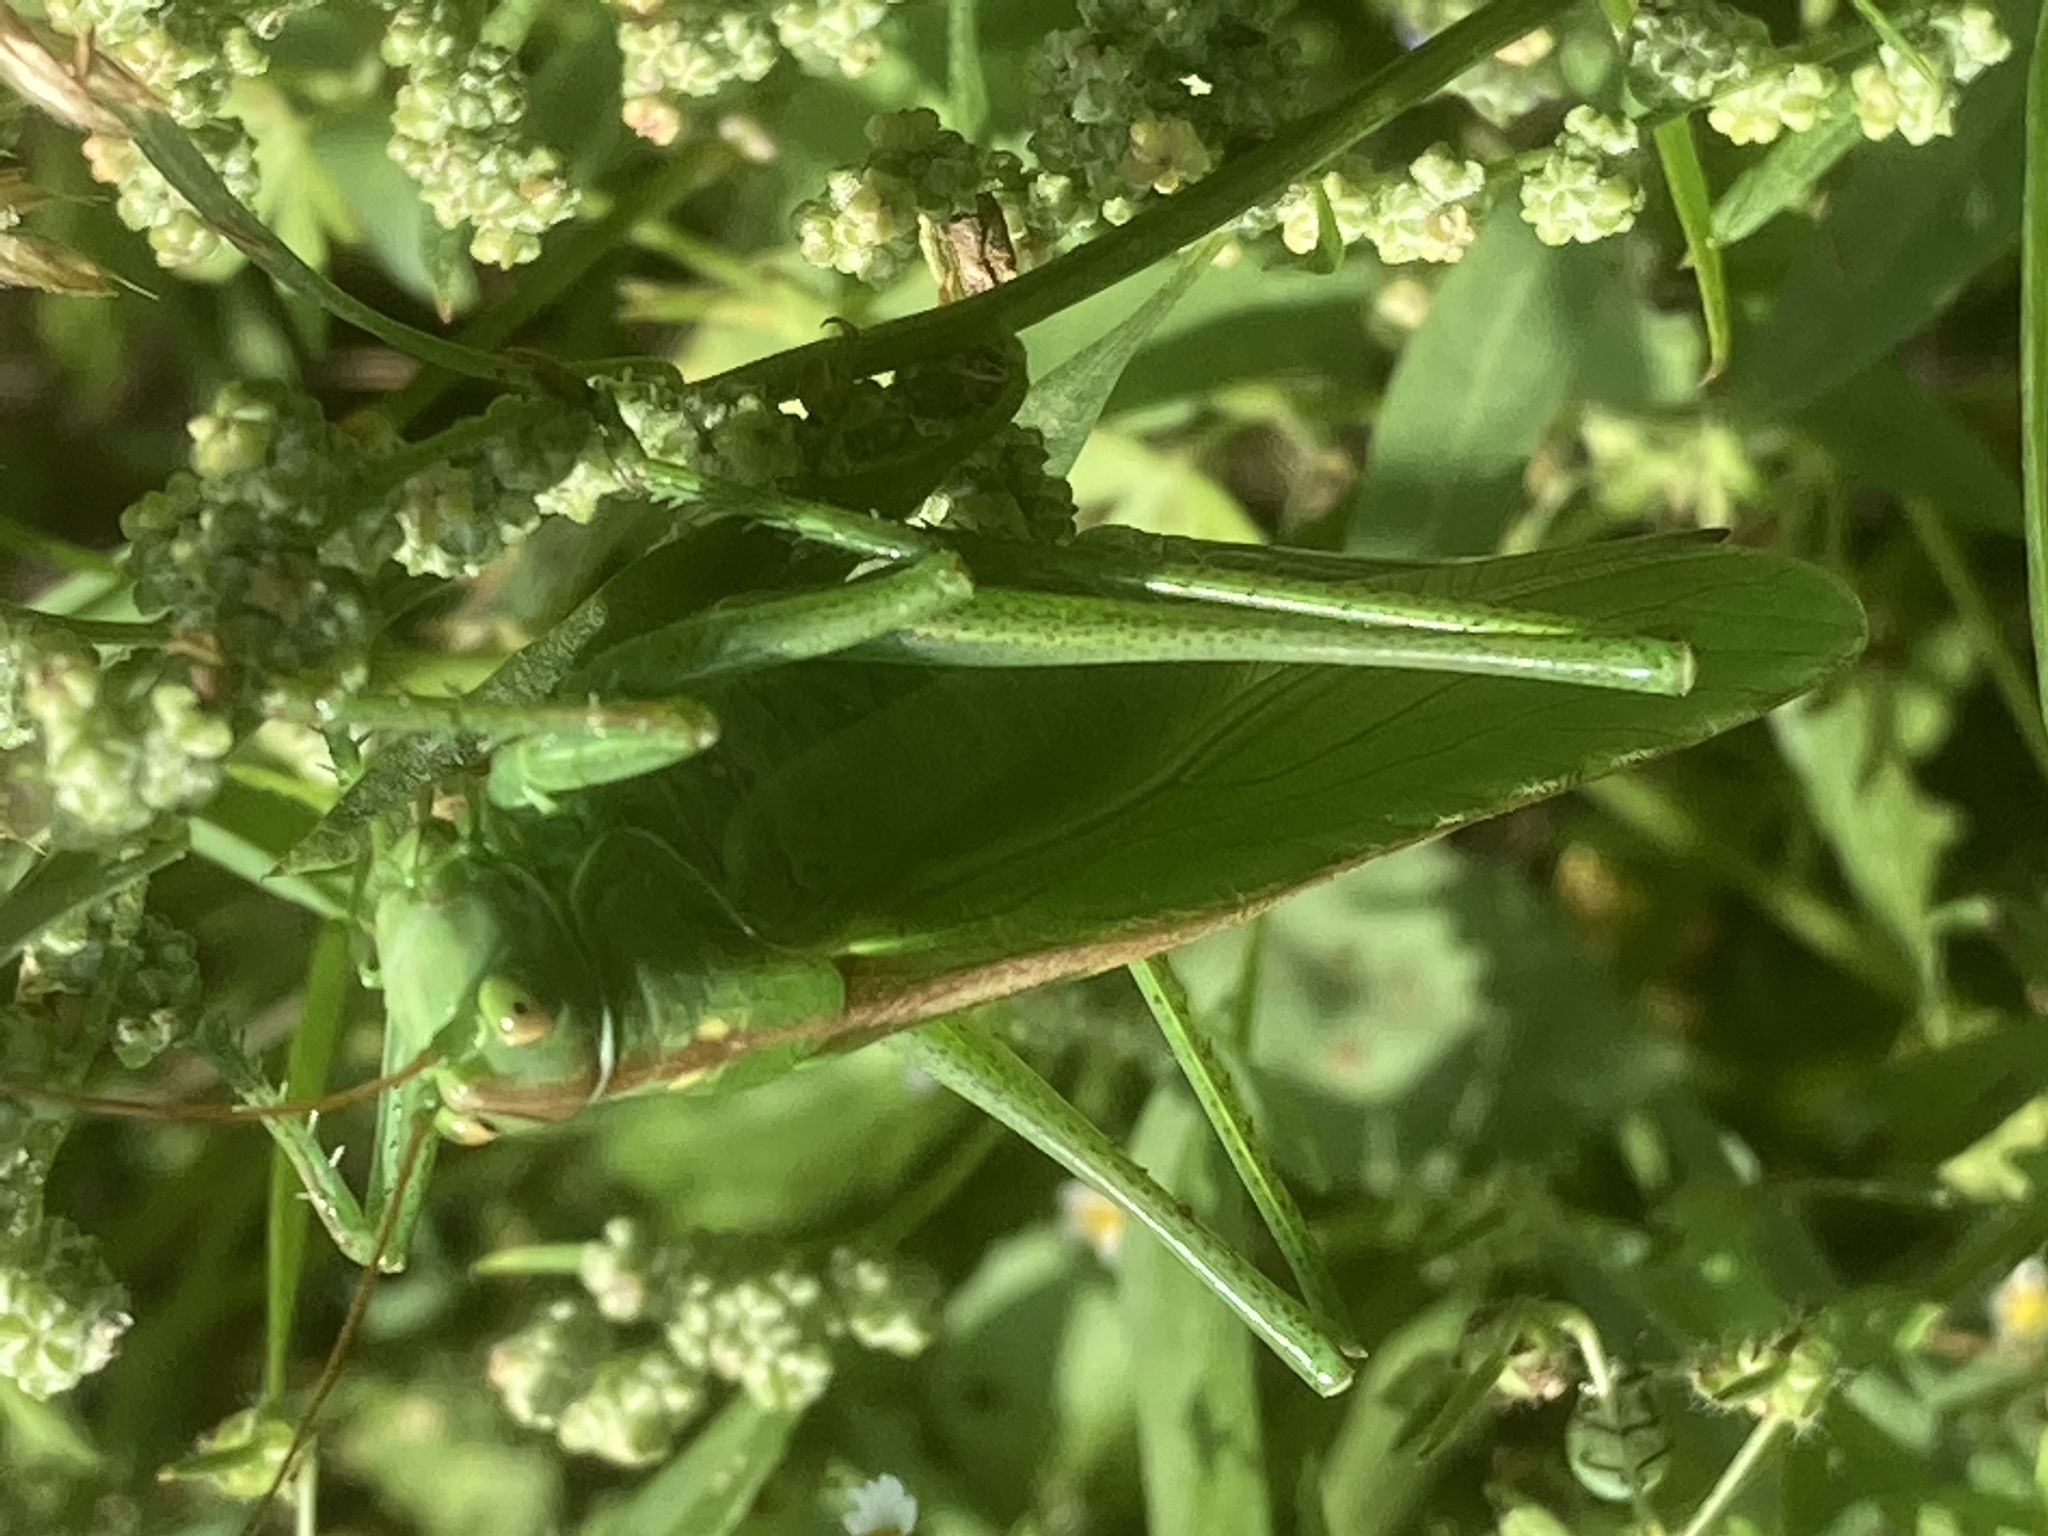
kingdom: Animalia
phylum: Arthropoda
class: Insecta
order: Orthoptera
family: Tettigoniidae
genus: Tettigonia
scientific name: Tettigonia viridissima
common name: Great green bush-cricket
